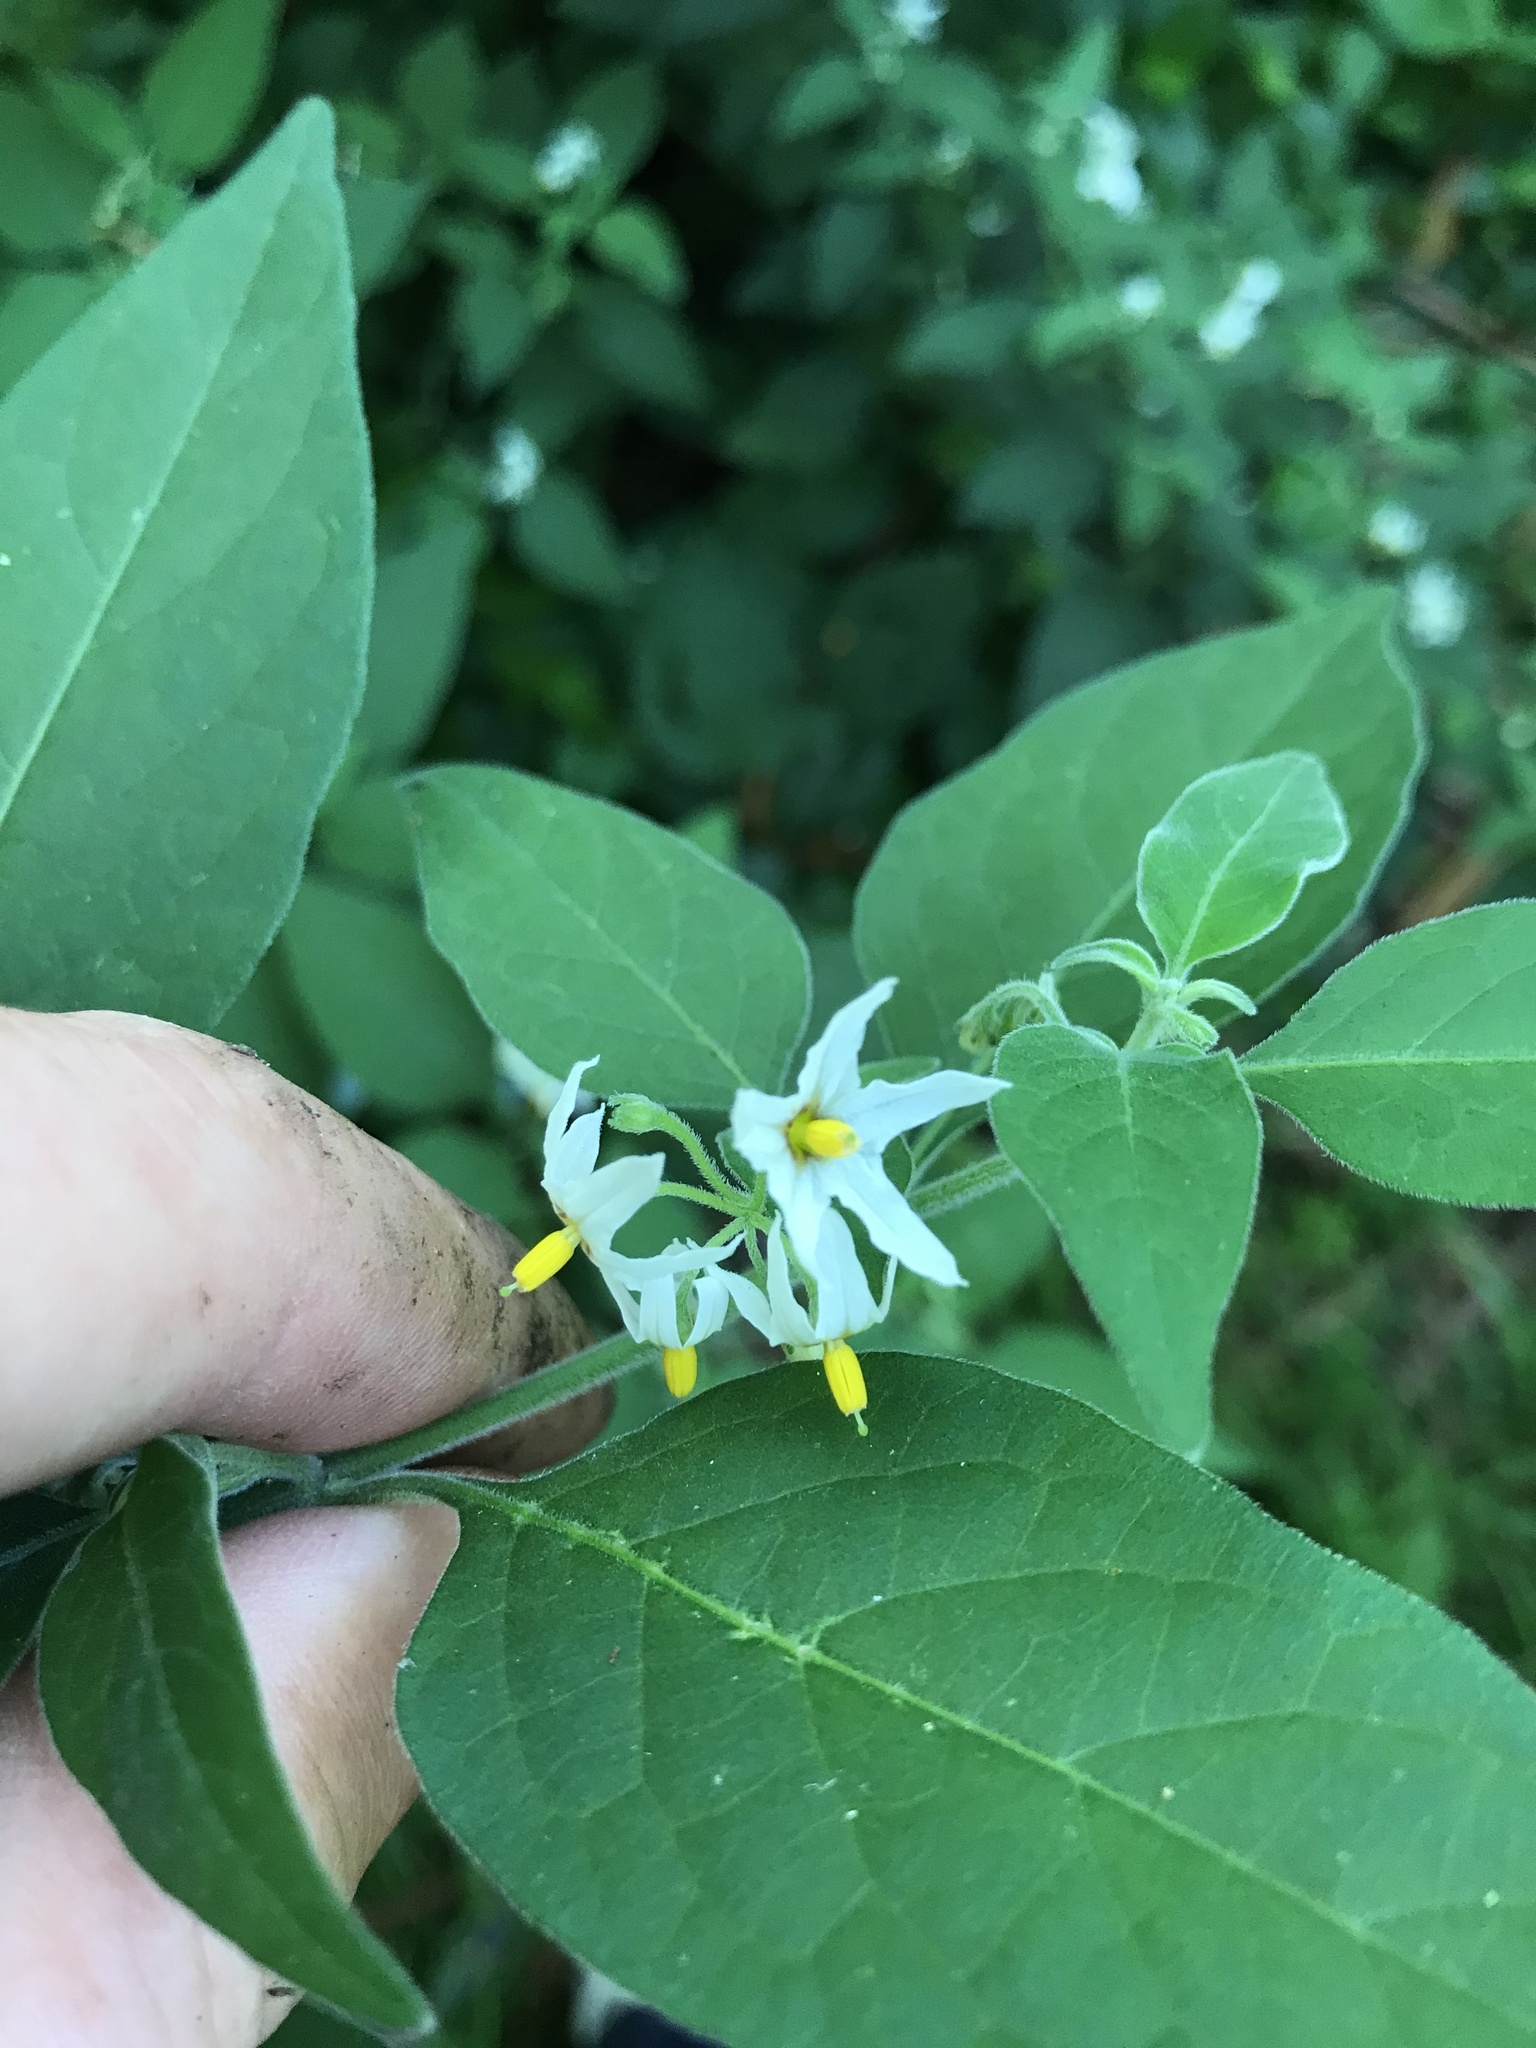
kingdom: Plantae
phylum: Tracheophyta
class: Magnoliopsida
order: Solanales
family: Solanaceae
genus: Solanum
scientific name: Solanum chenopodioides
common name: Tall nightshade
